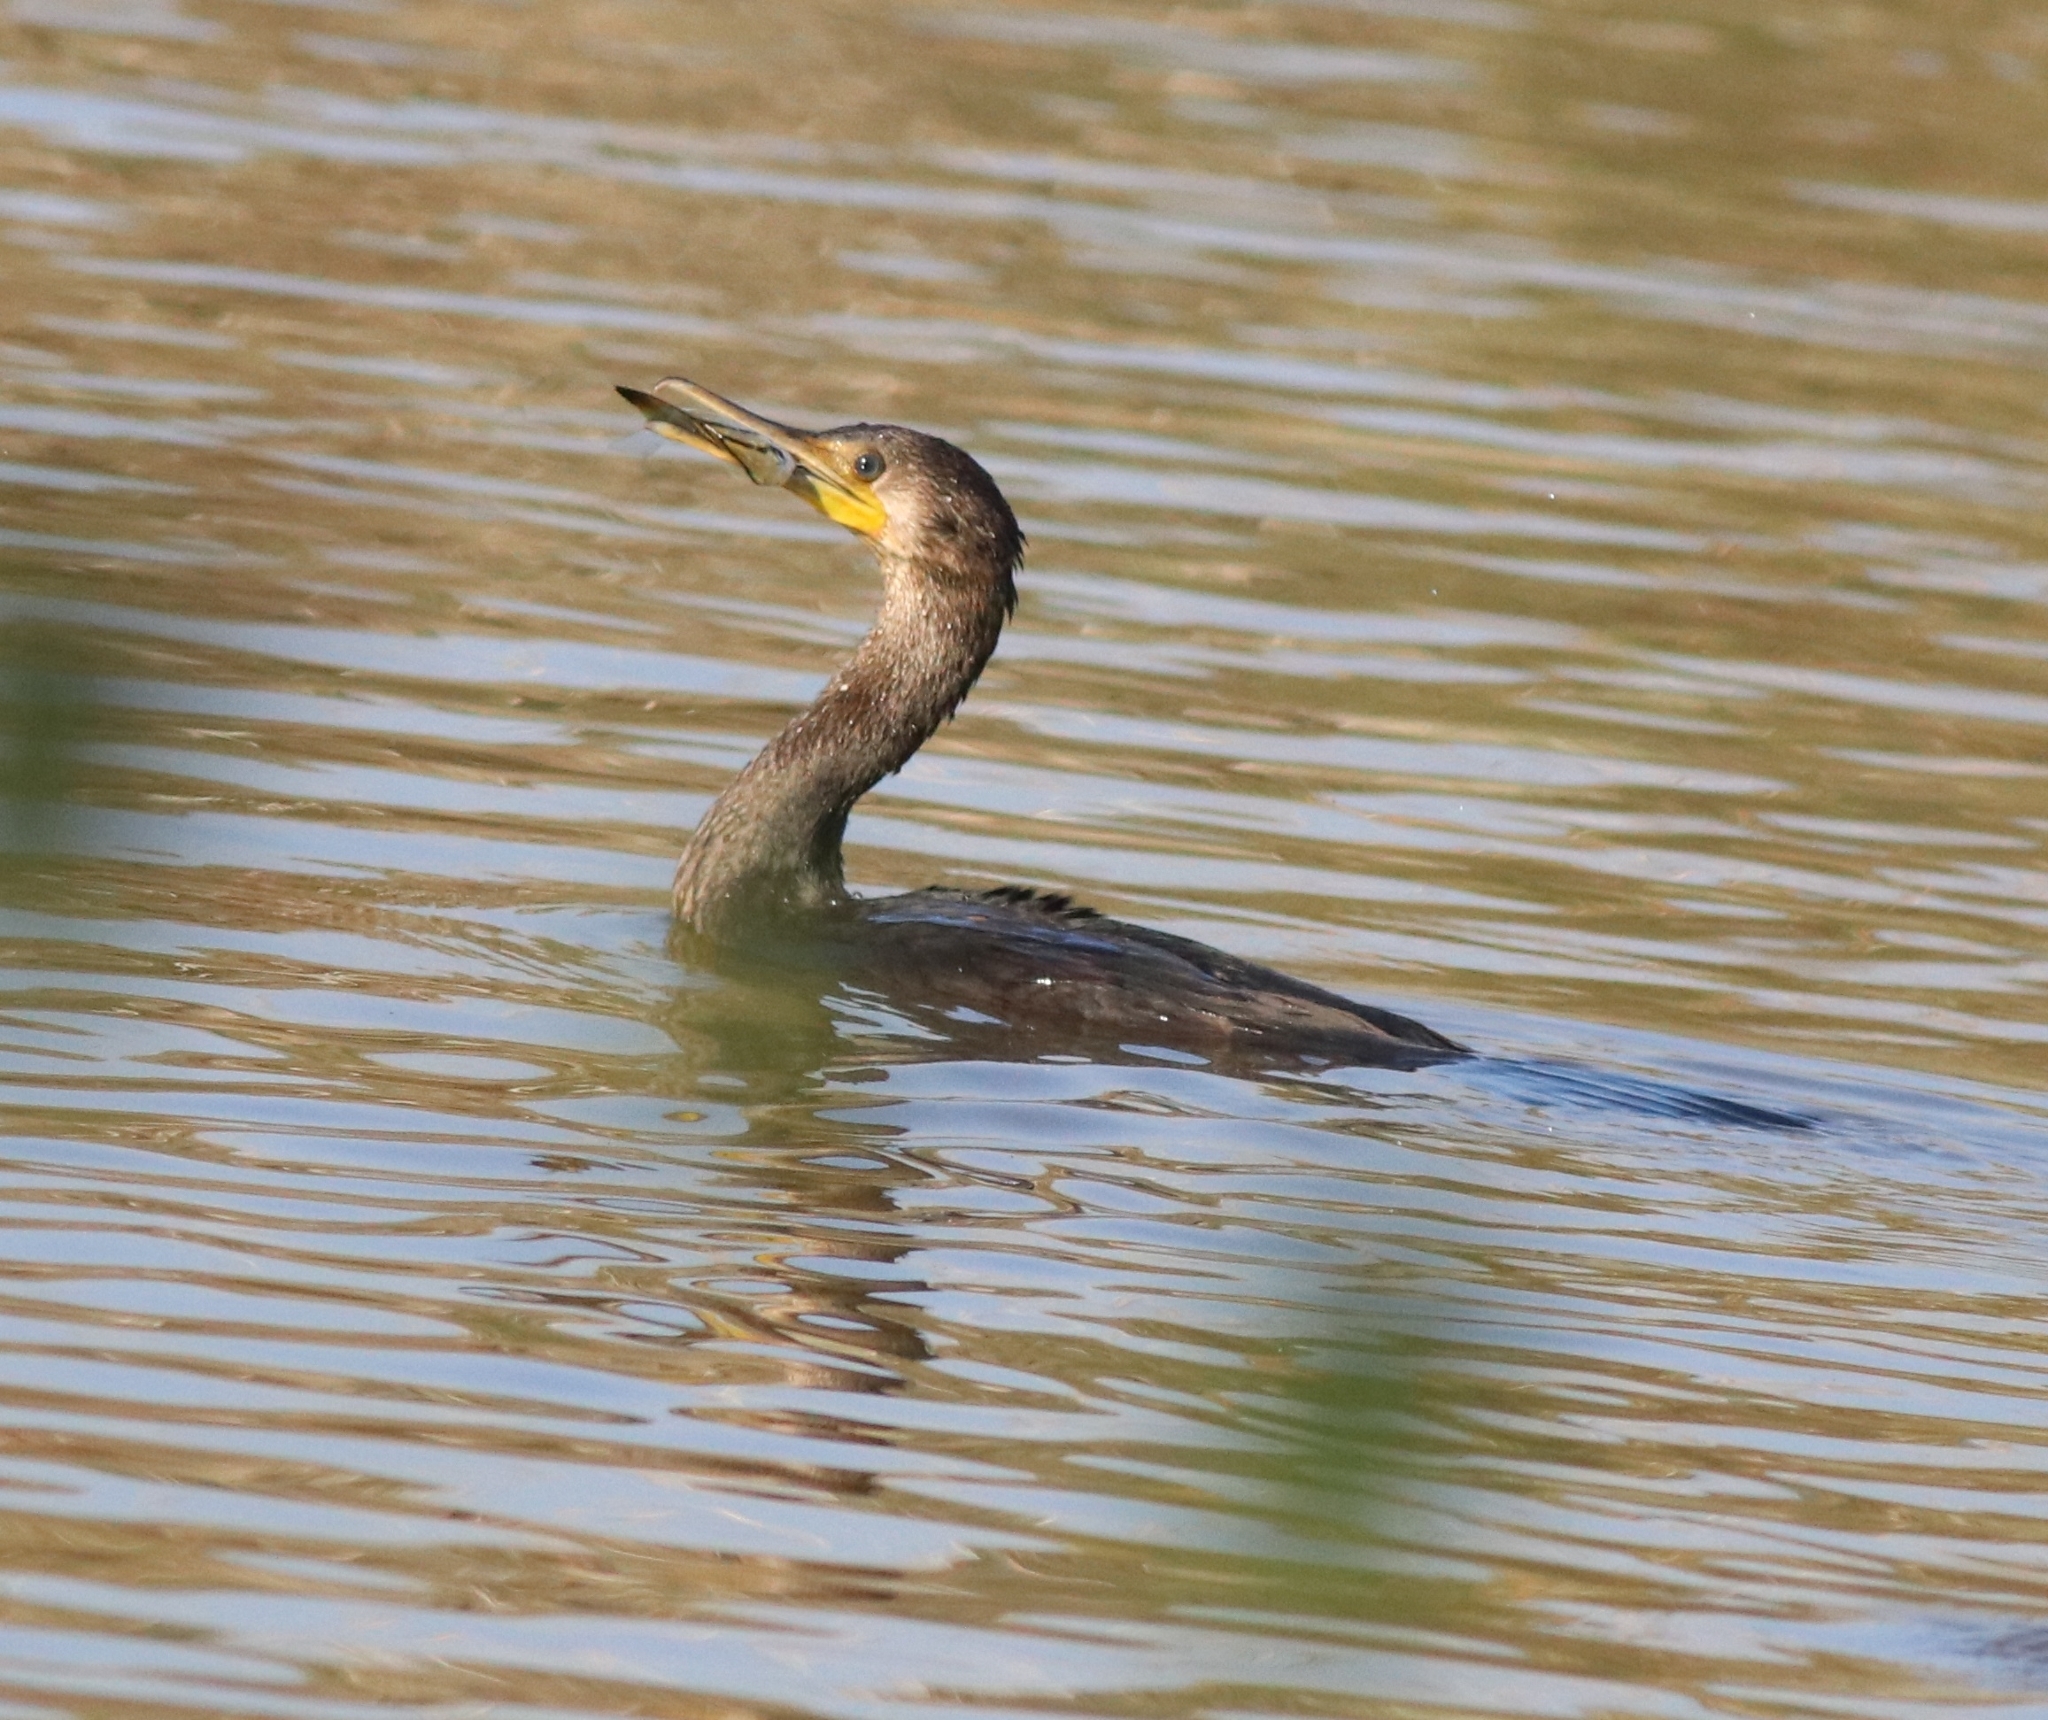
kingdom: Animalia
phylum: Chordata
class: Aves
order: Suliformes
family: Phalacrocoracidae
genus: Phalacrocorax
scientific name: Phalacrocorax fuscicollis
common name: Indian cormorant
